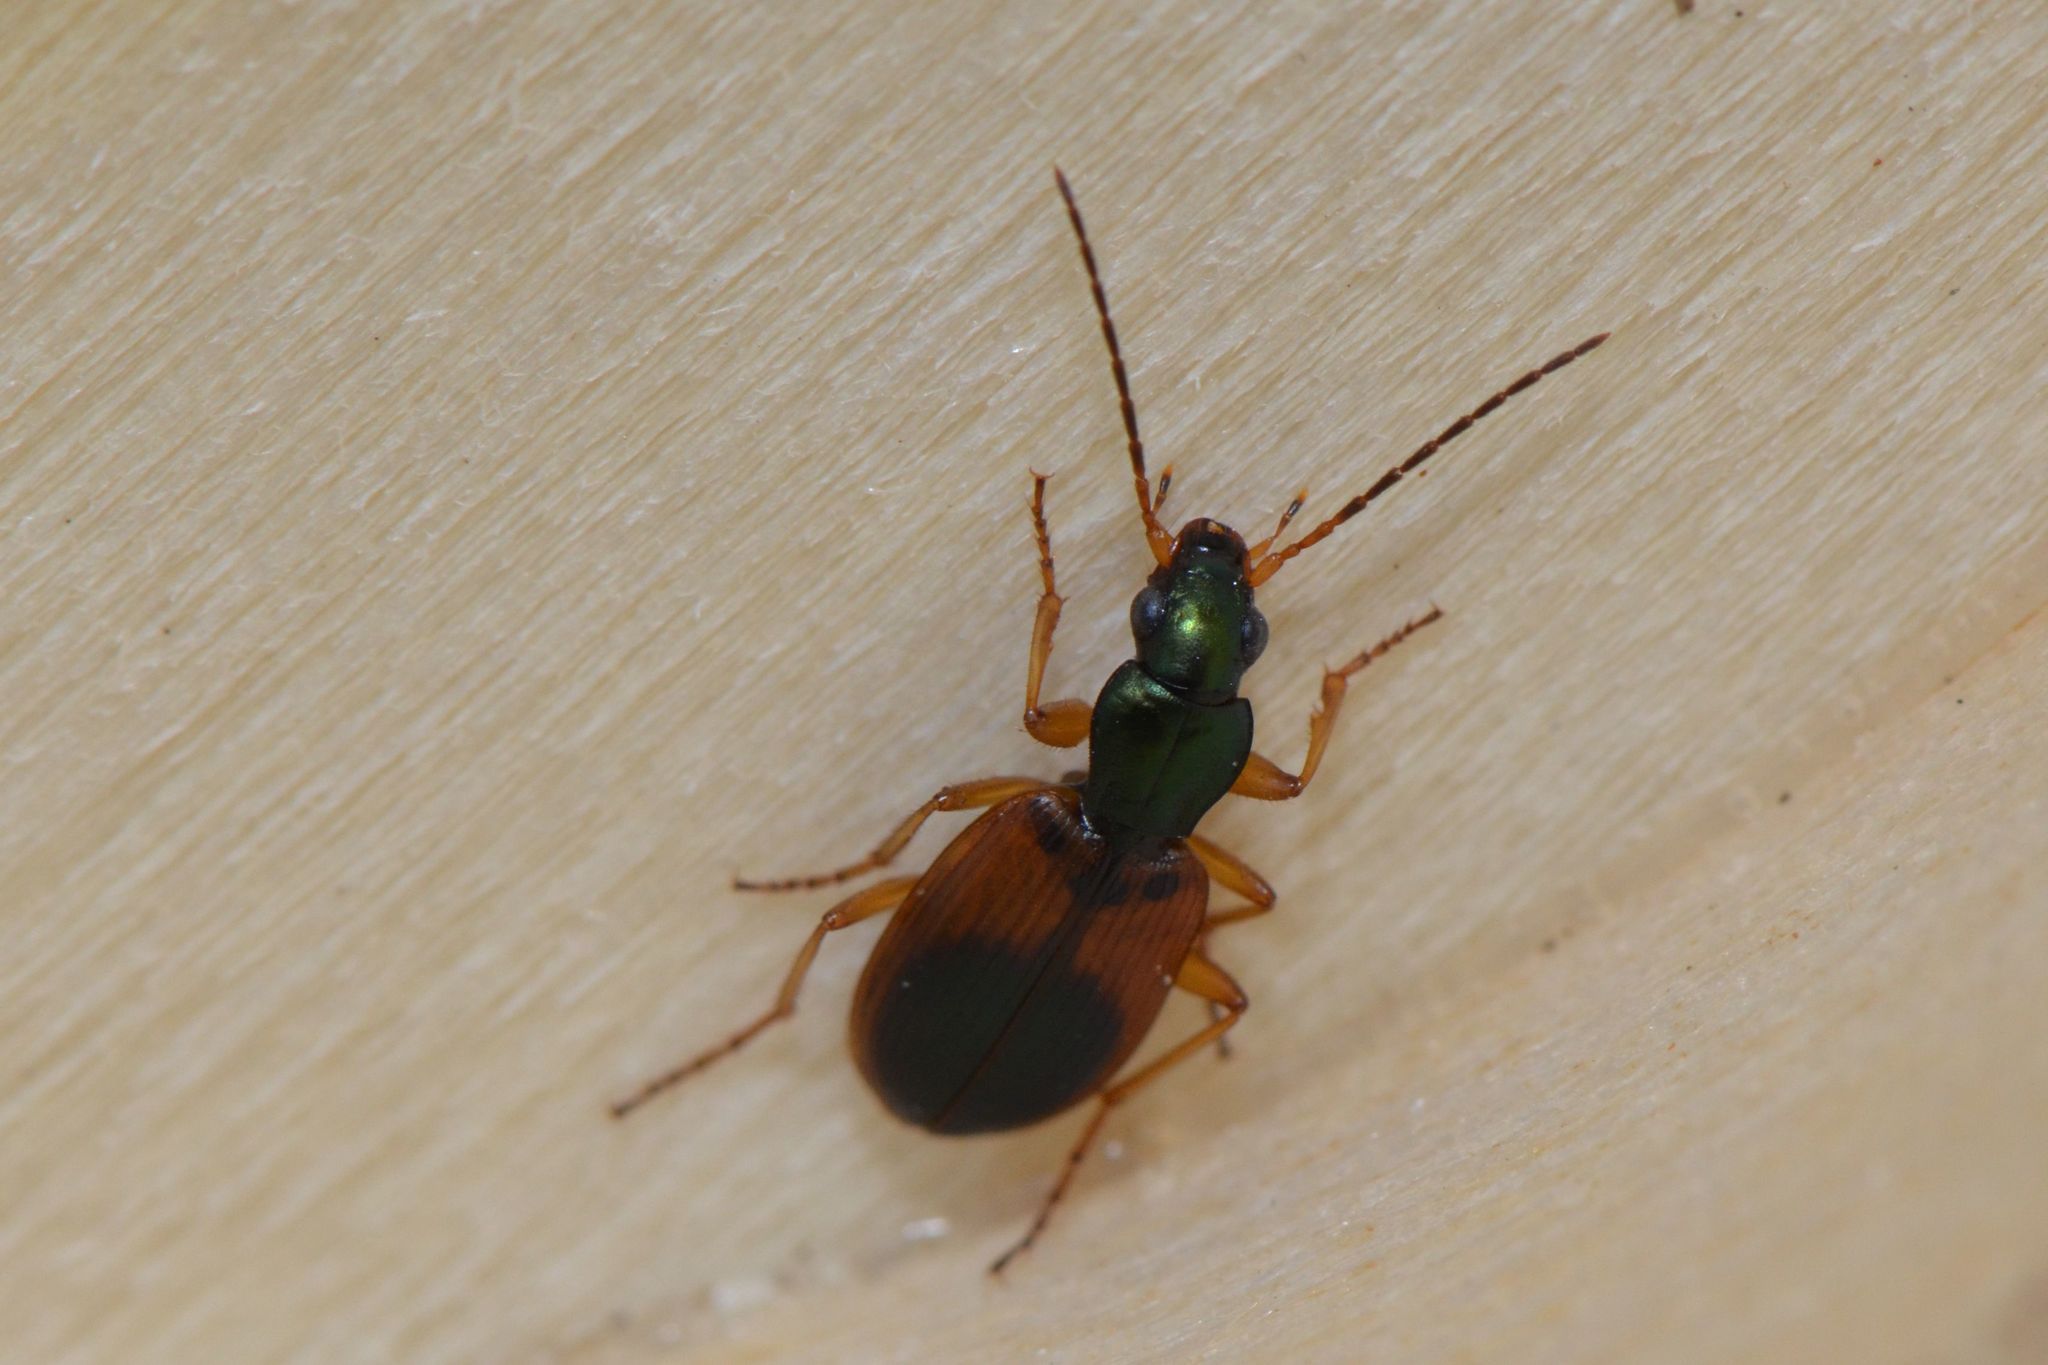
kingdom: Animalia
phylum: Arthropoda
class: Insecta
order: Coleoptera
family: Carabidae
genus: Anchomenus
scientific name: Anchomenus dorsalis
